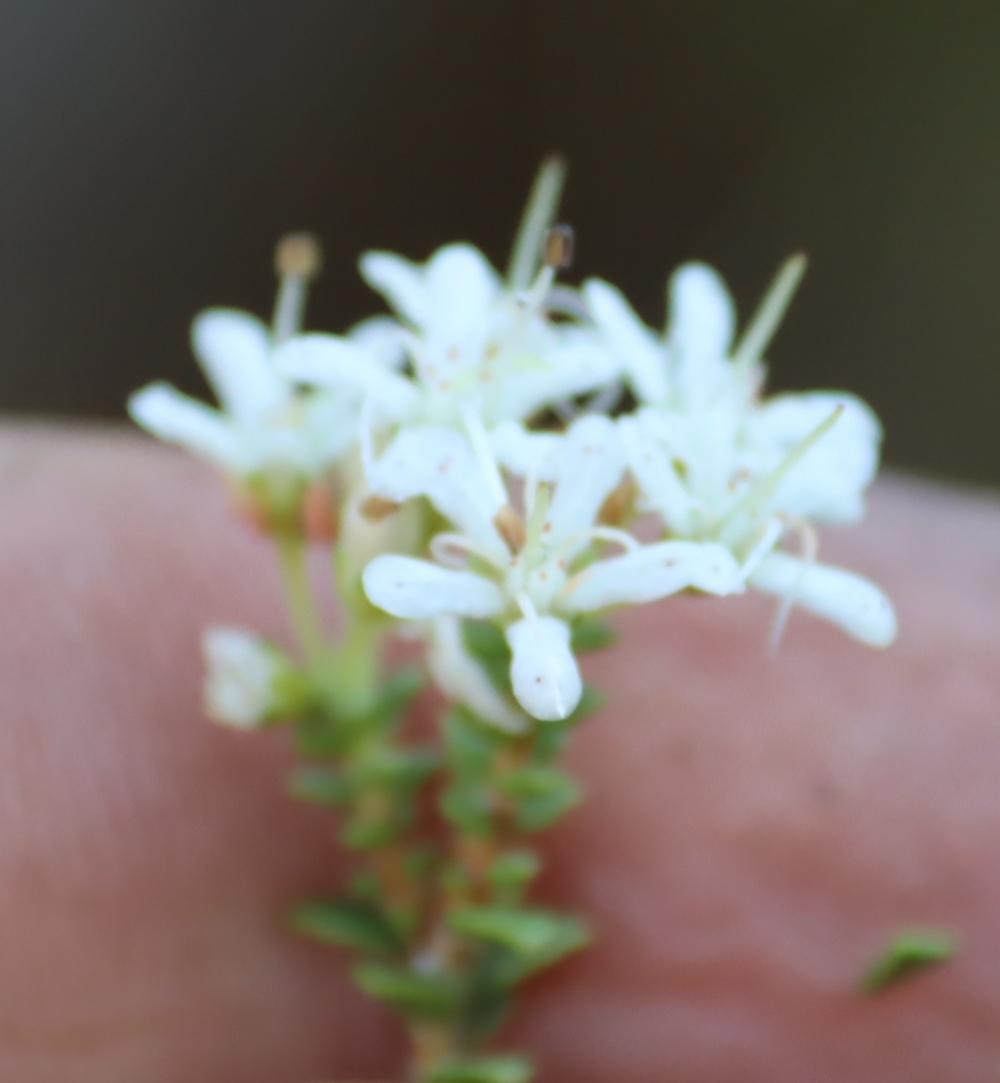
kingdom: Plantae
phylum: Tracheophyta
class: Magnoliopsida
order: Sapindales
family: Rutaceae
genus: Agathosma
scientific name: Agathosma recurvifolia
